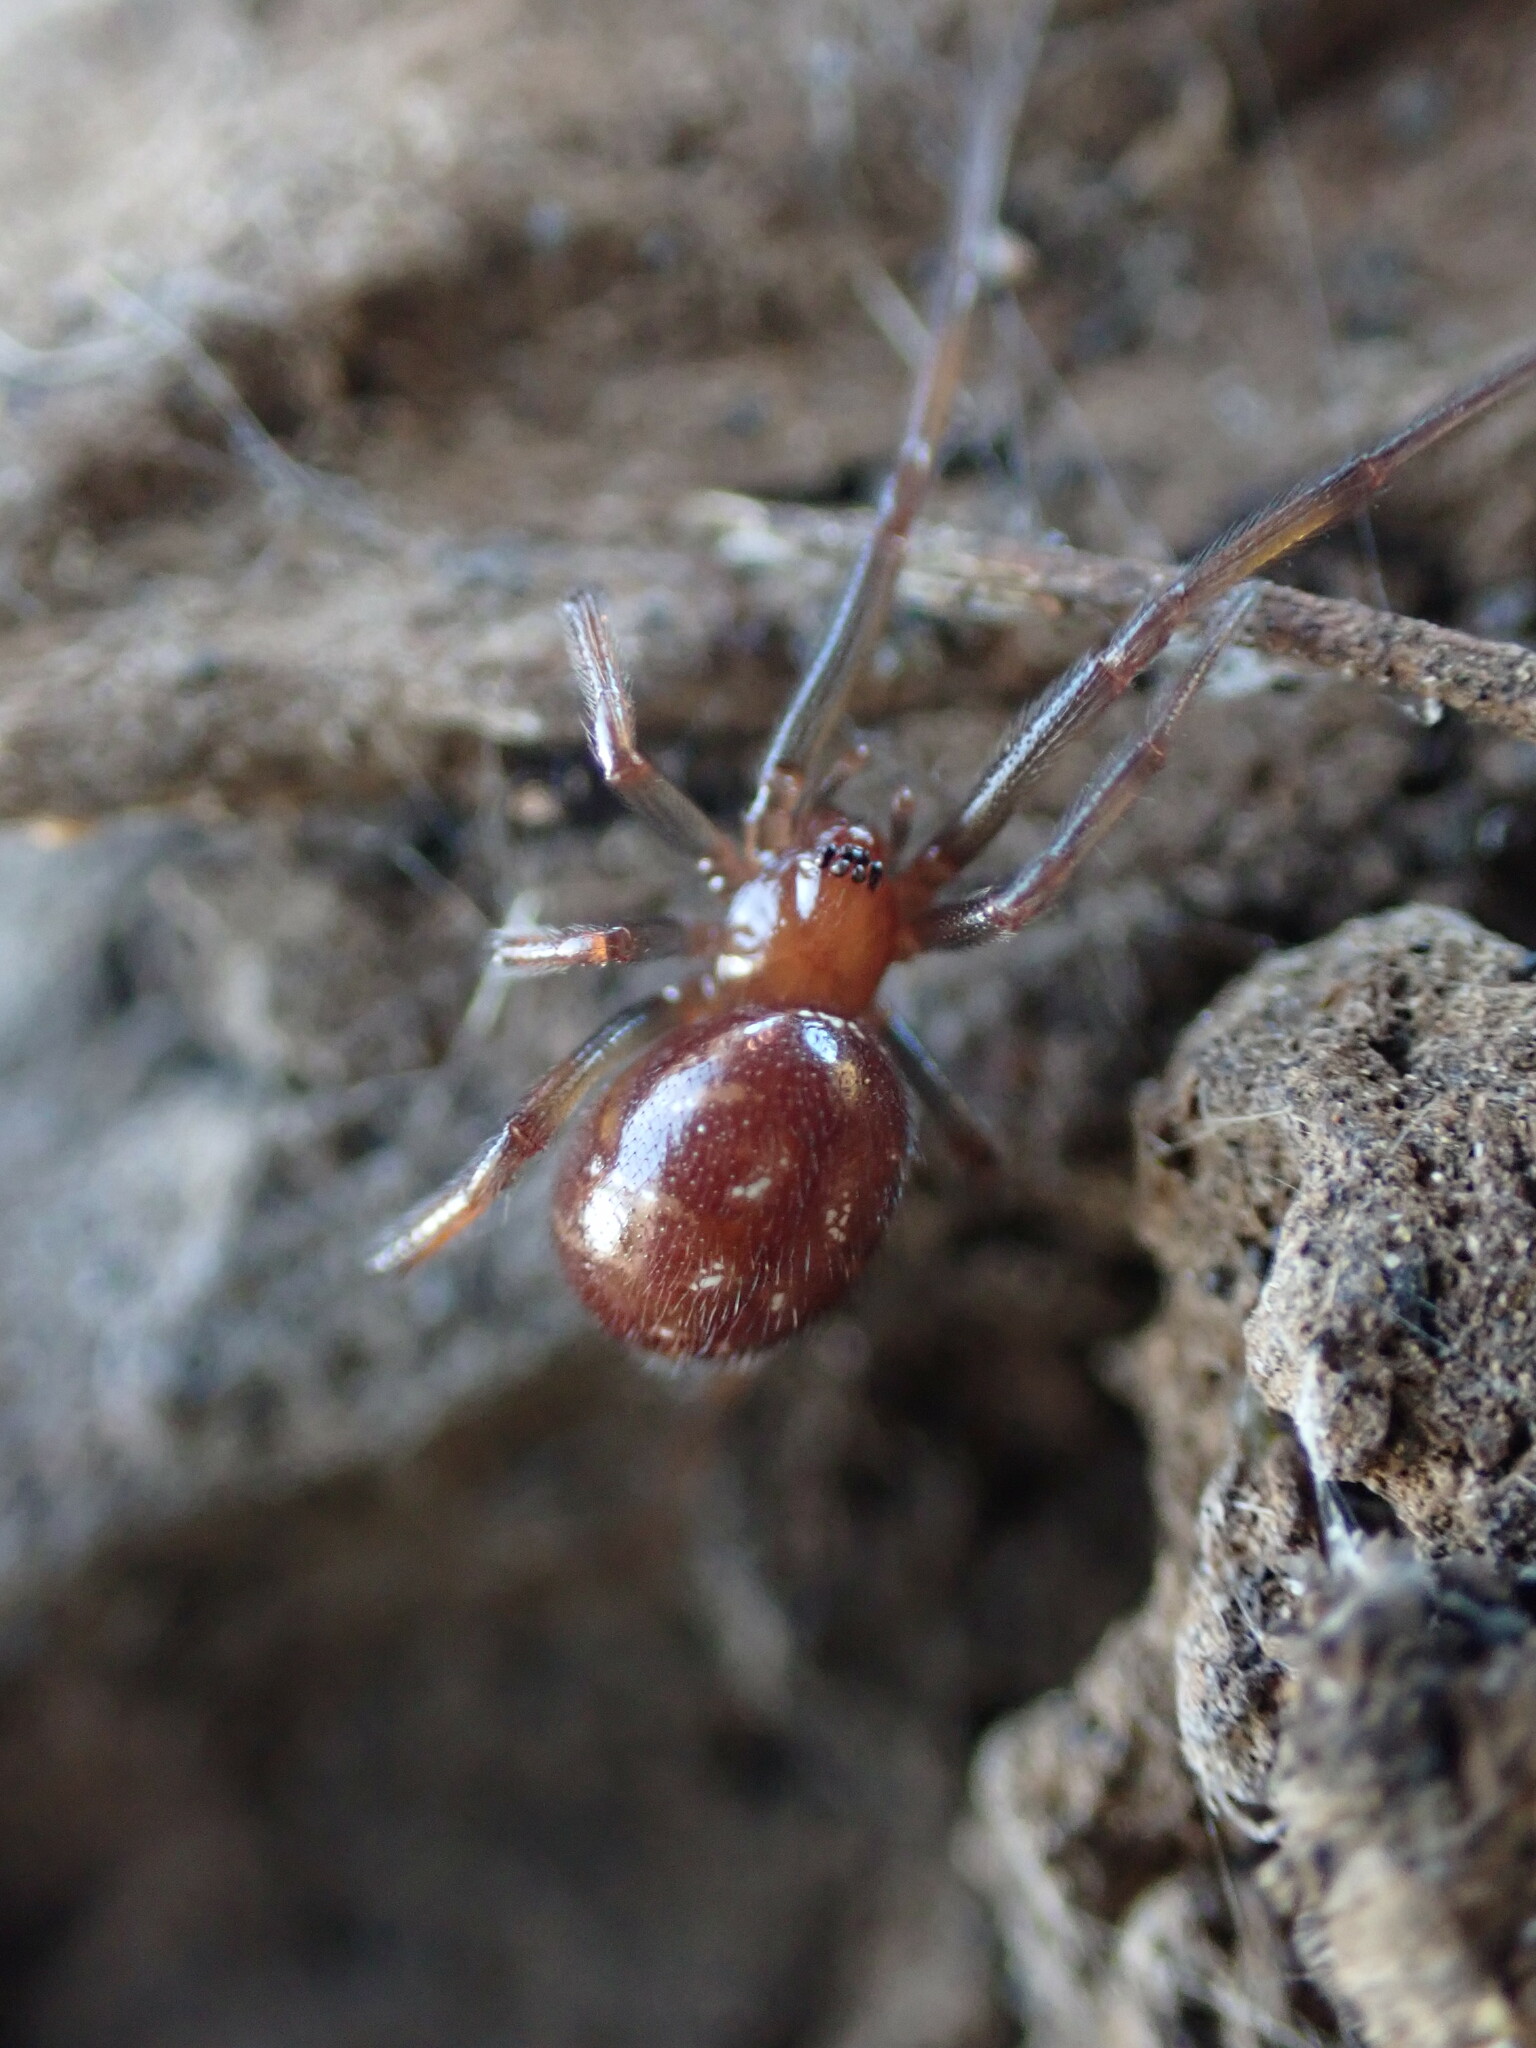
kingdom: Animalia
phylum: Arthropoda
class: Arachnida
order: Araneae
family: Theridiidae
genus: Steatoda
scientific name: Steatoda capensis
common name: Cobweb weaver
